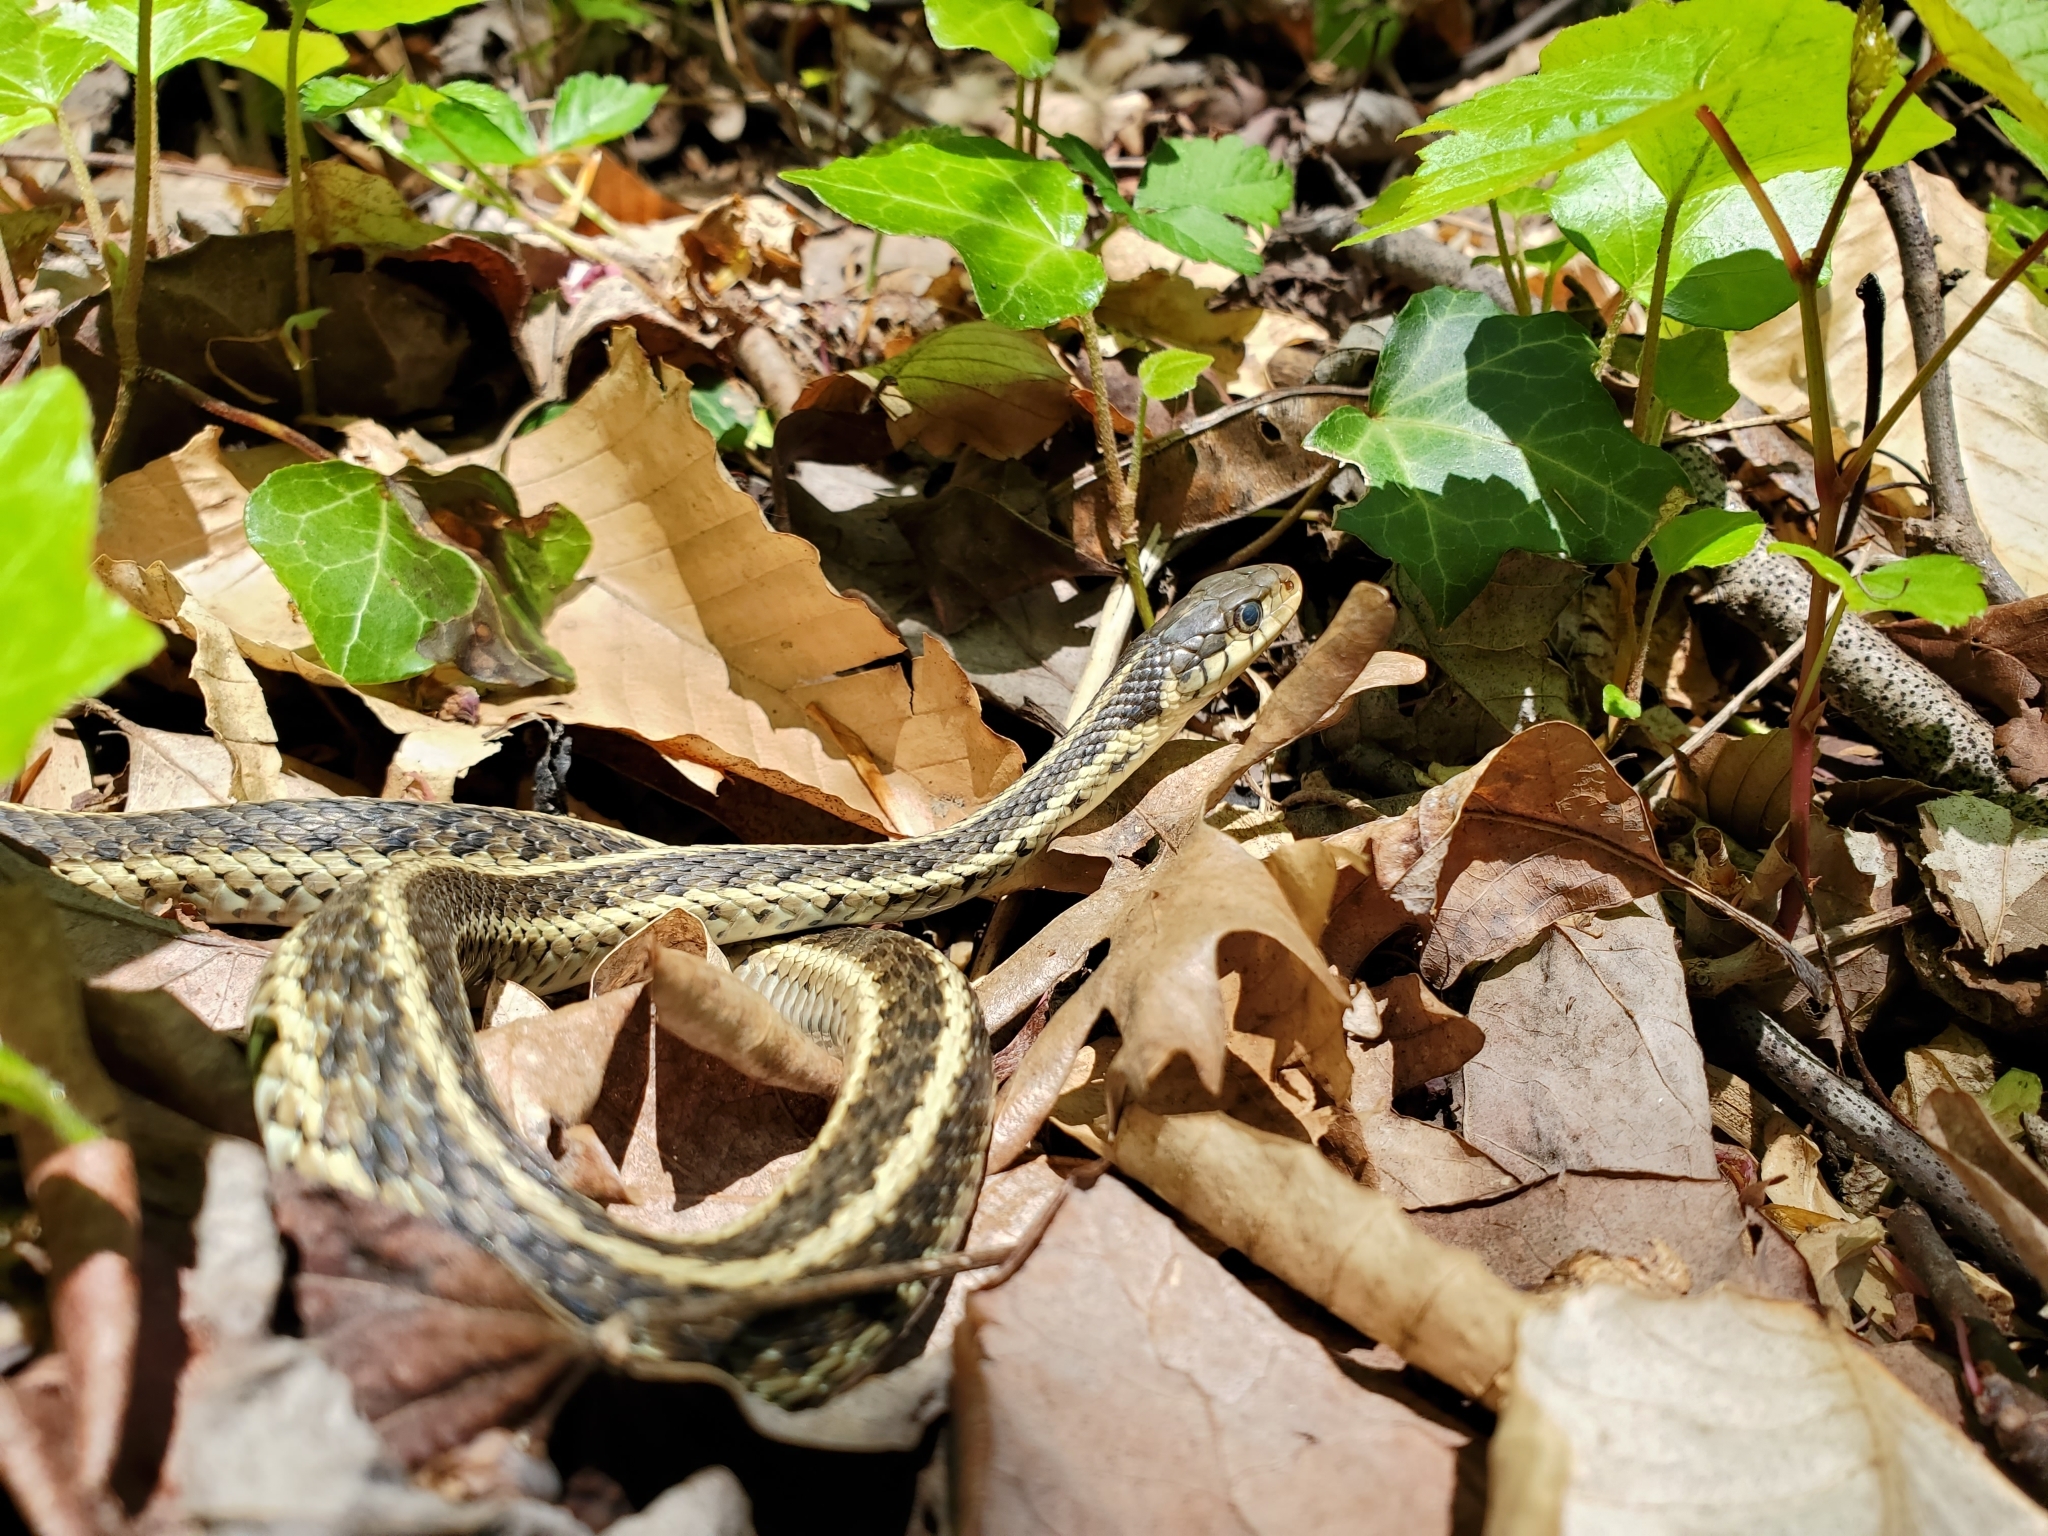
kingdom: Animalia
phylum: Chordata
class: Squamata
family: Colubridae
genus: Thamnophis
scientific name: Thamnophis sirtalis
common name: Common garter snake
